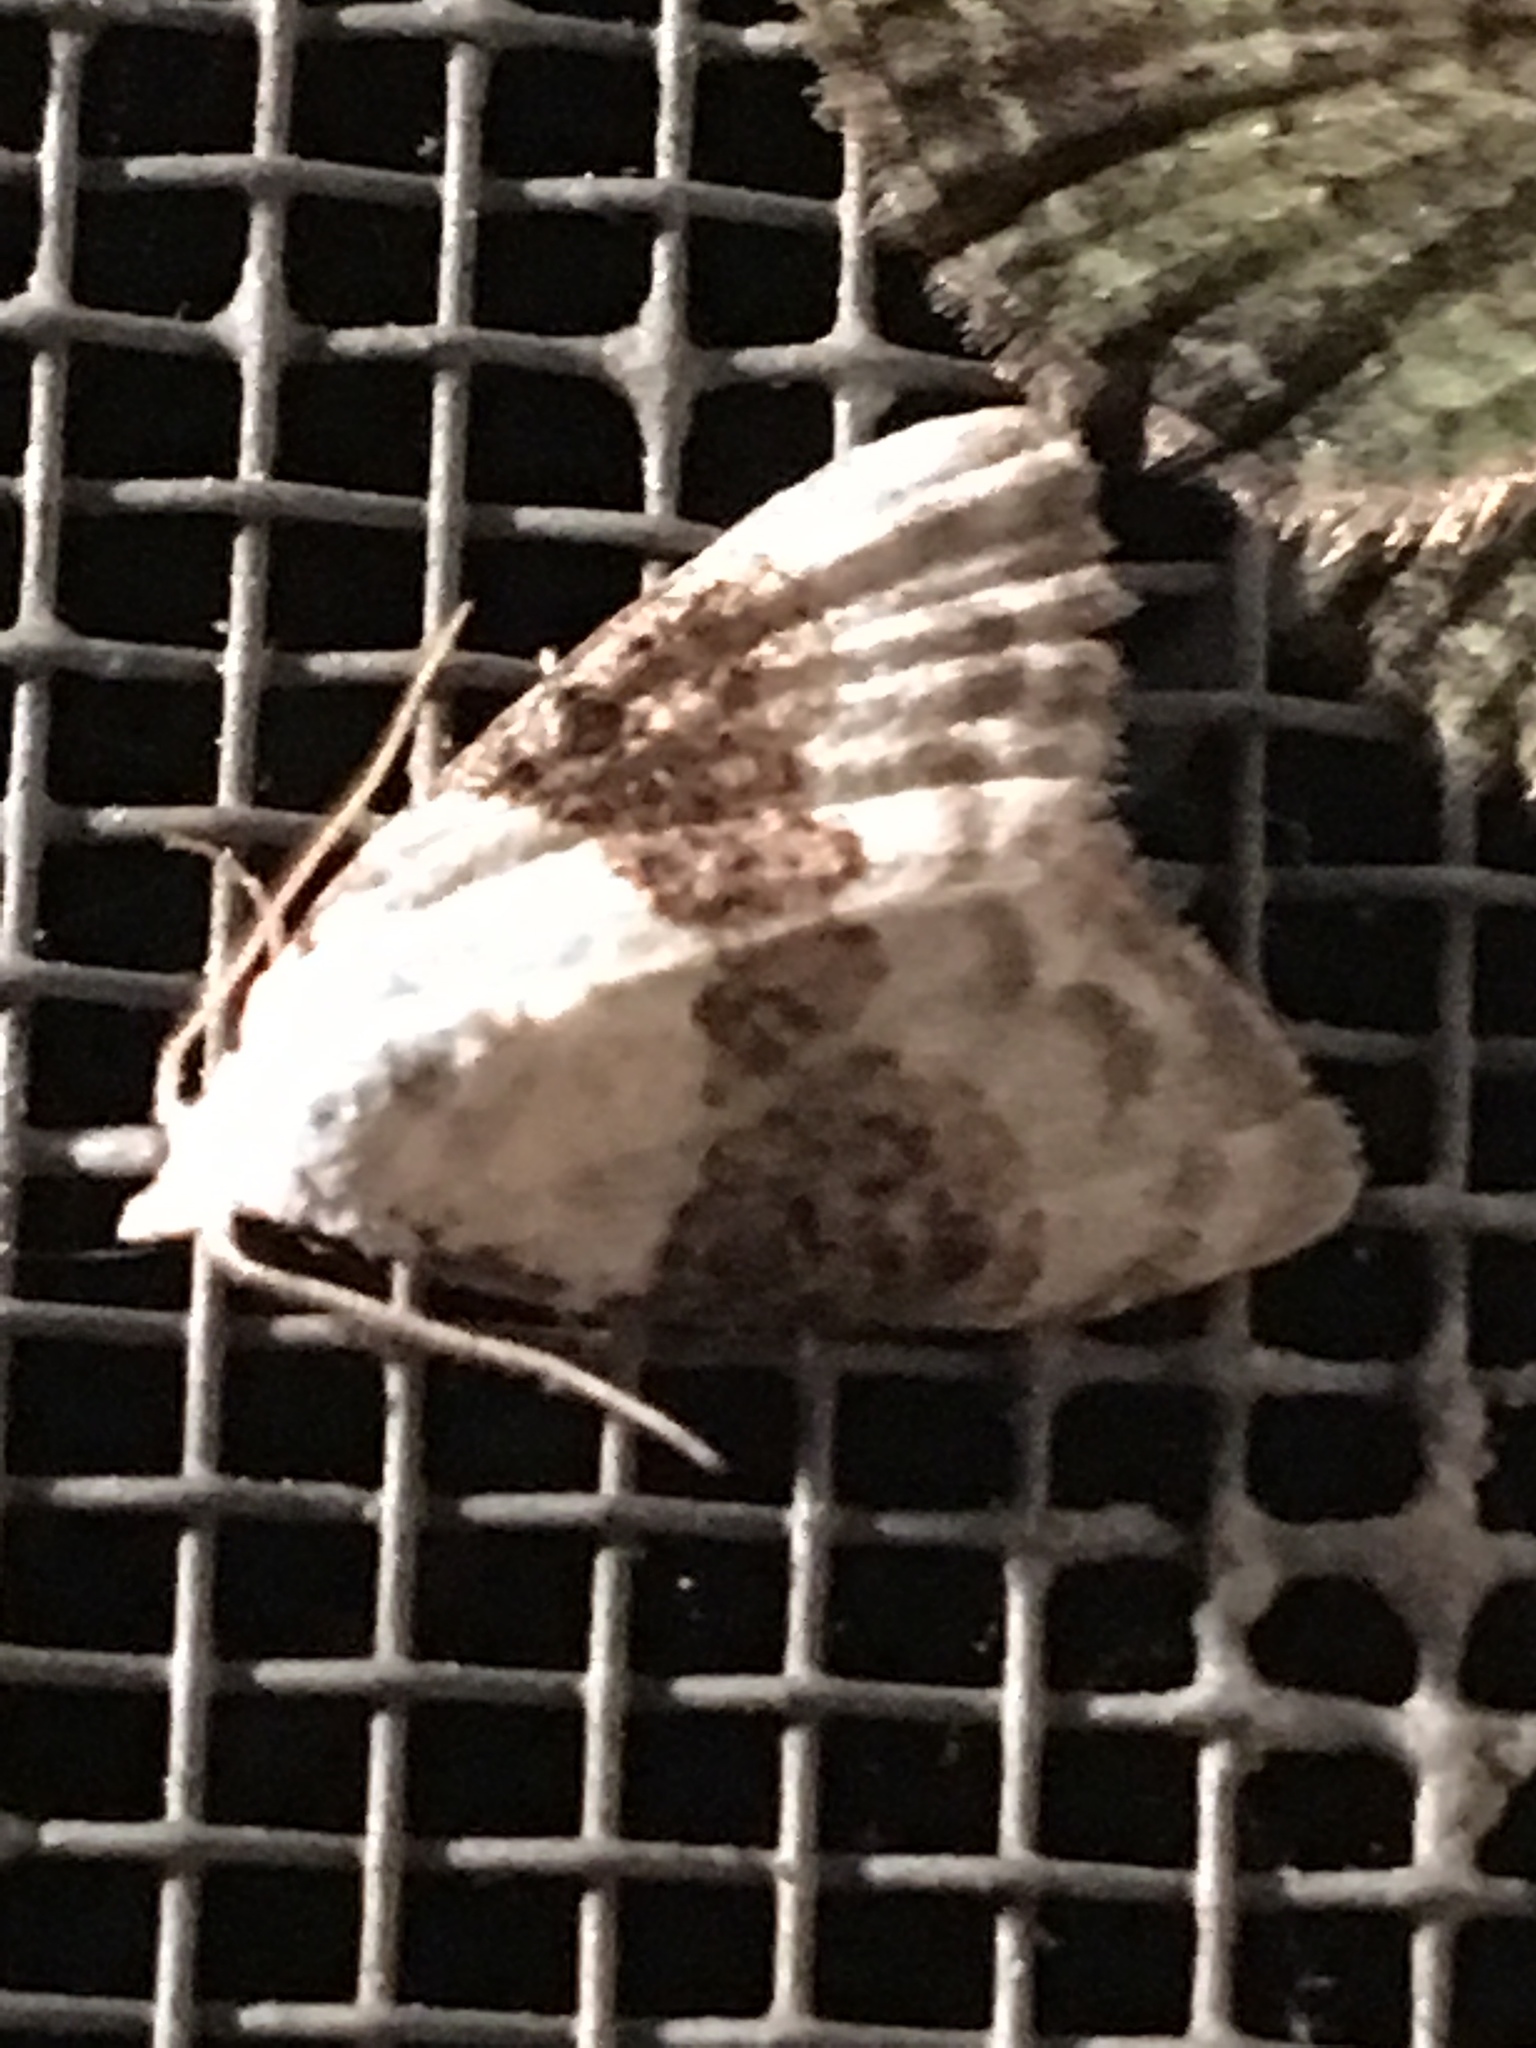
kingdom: Animalia
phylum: Arthropoda
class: Insecta
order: Lepidoptera
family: Nolidae
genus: Nola
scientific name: Nola pustulata
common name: Sharp-blotched nola moth
